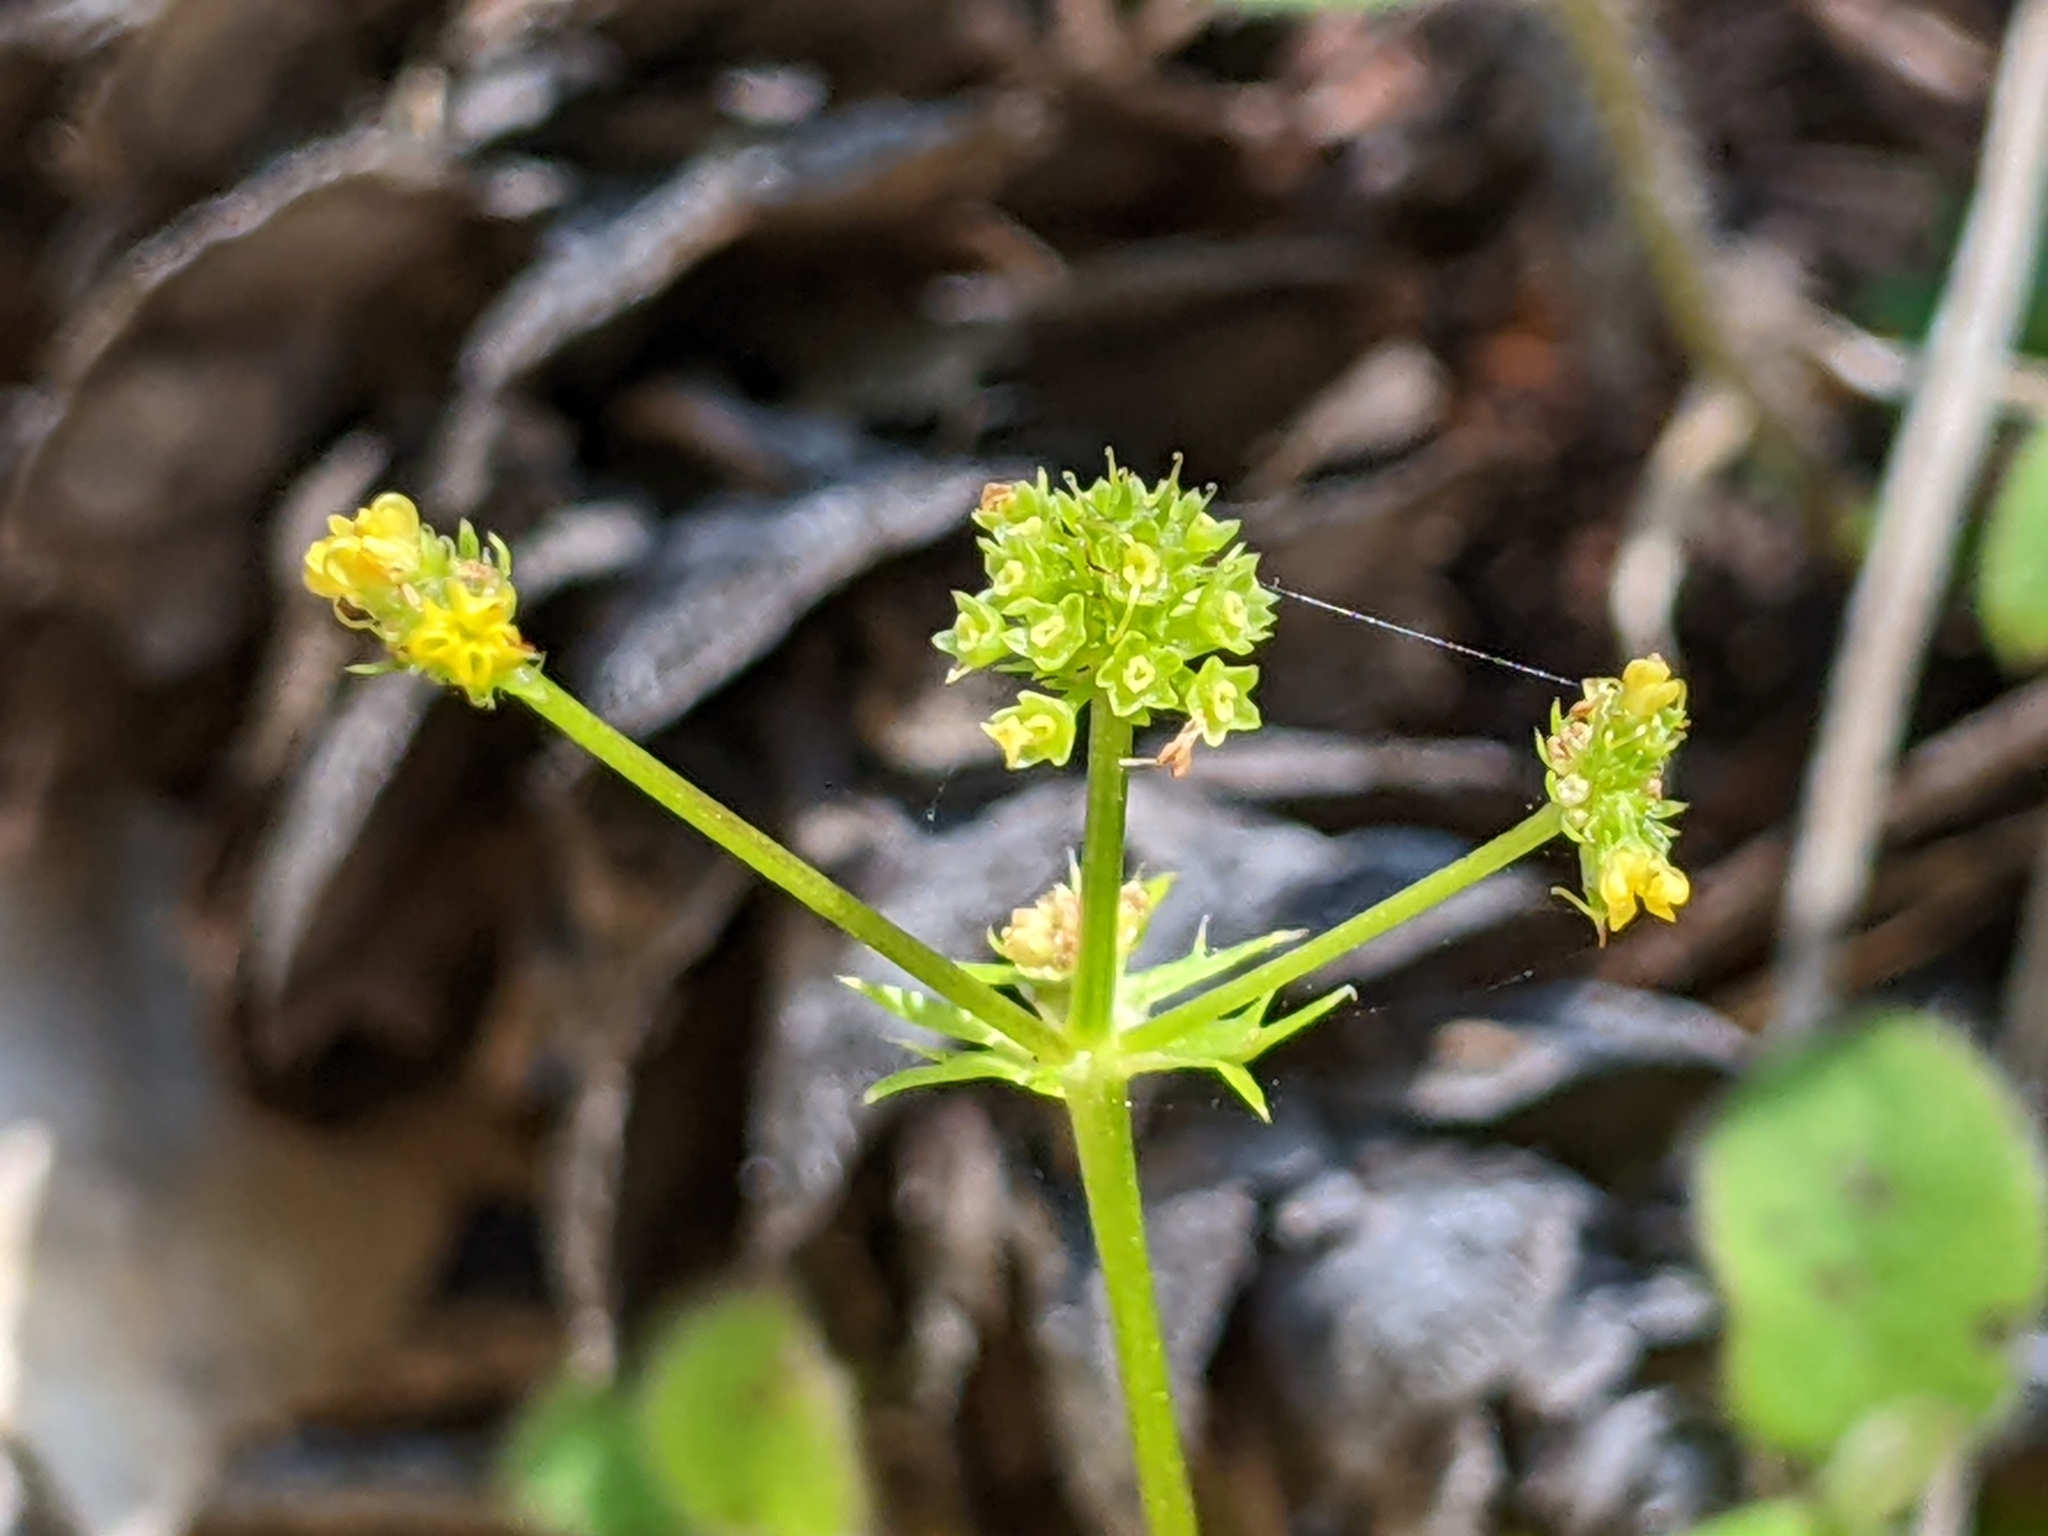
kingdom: Plantae
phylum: Tracheophyta
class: Magnoliopsida
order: Apiales
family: Apiaceae
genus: Sanicula
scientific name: Sanicula laciniata
